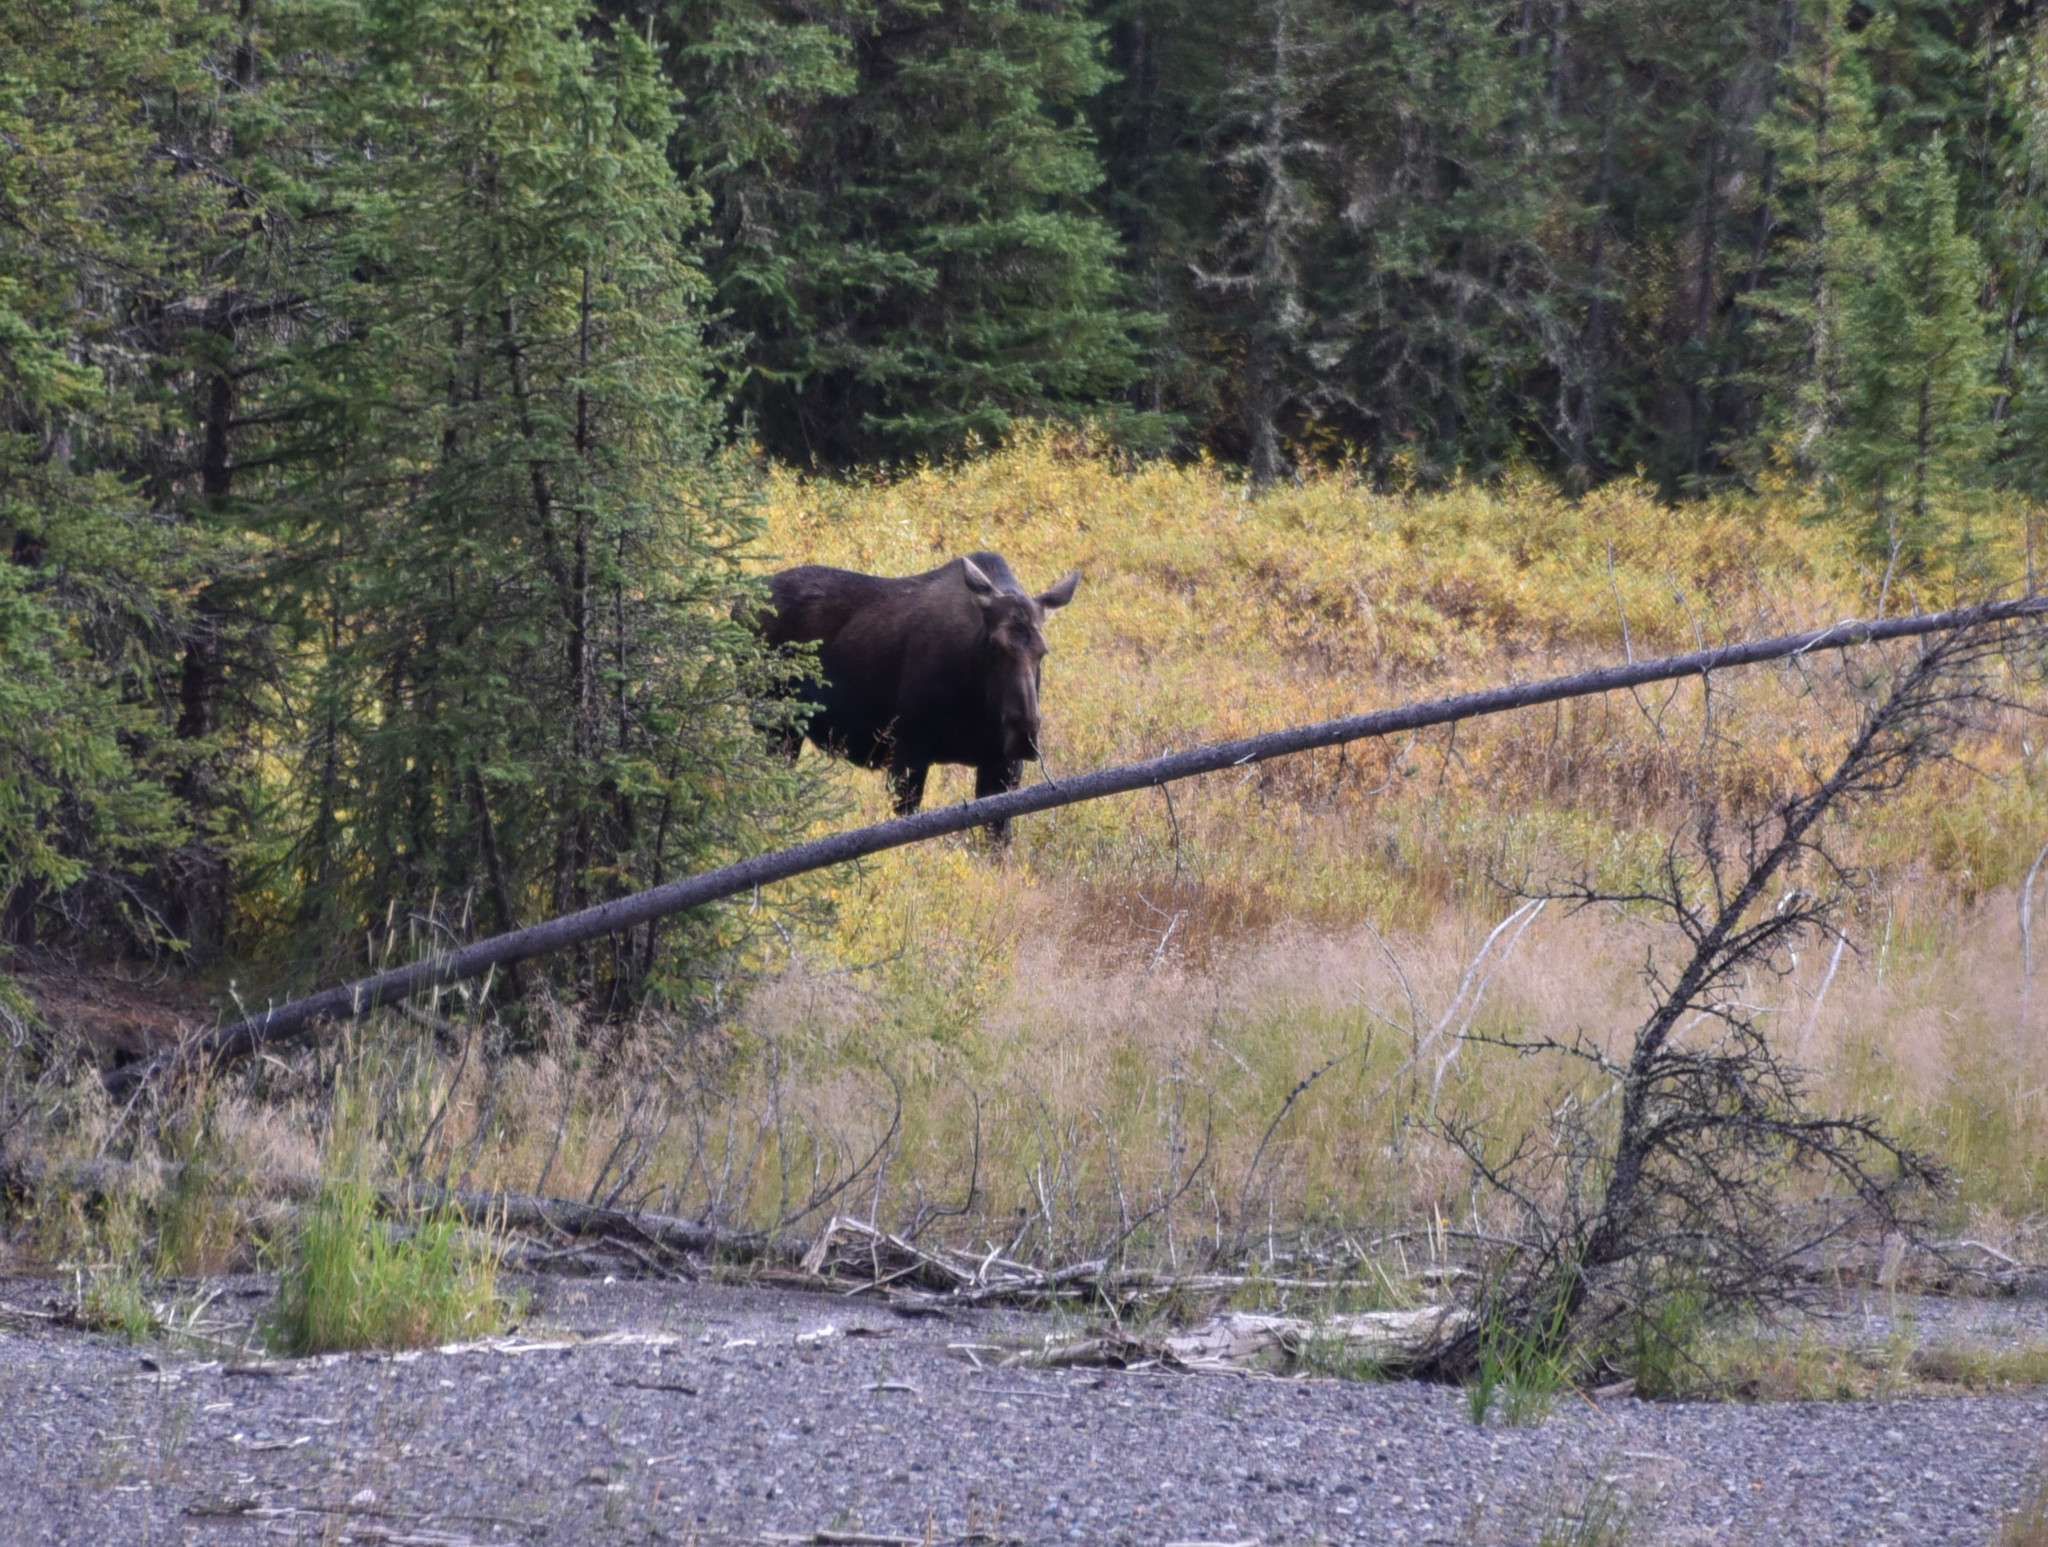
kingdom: Animalia
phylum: Chordata
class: Mammalia
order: Artiodactyla
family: Cervidae
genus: Alces
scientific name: Alces alces
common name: Moose
